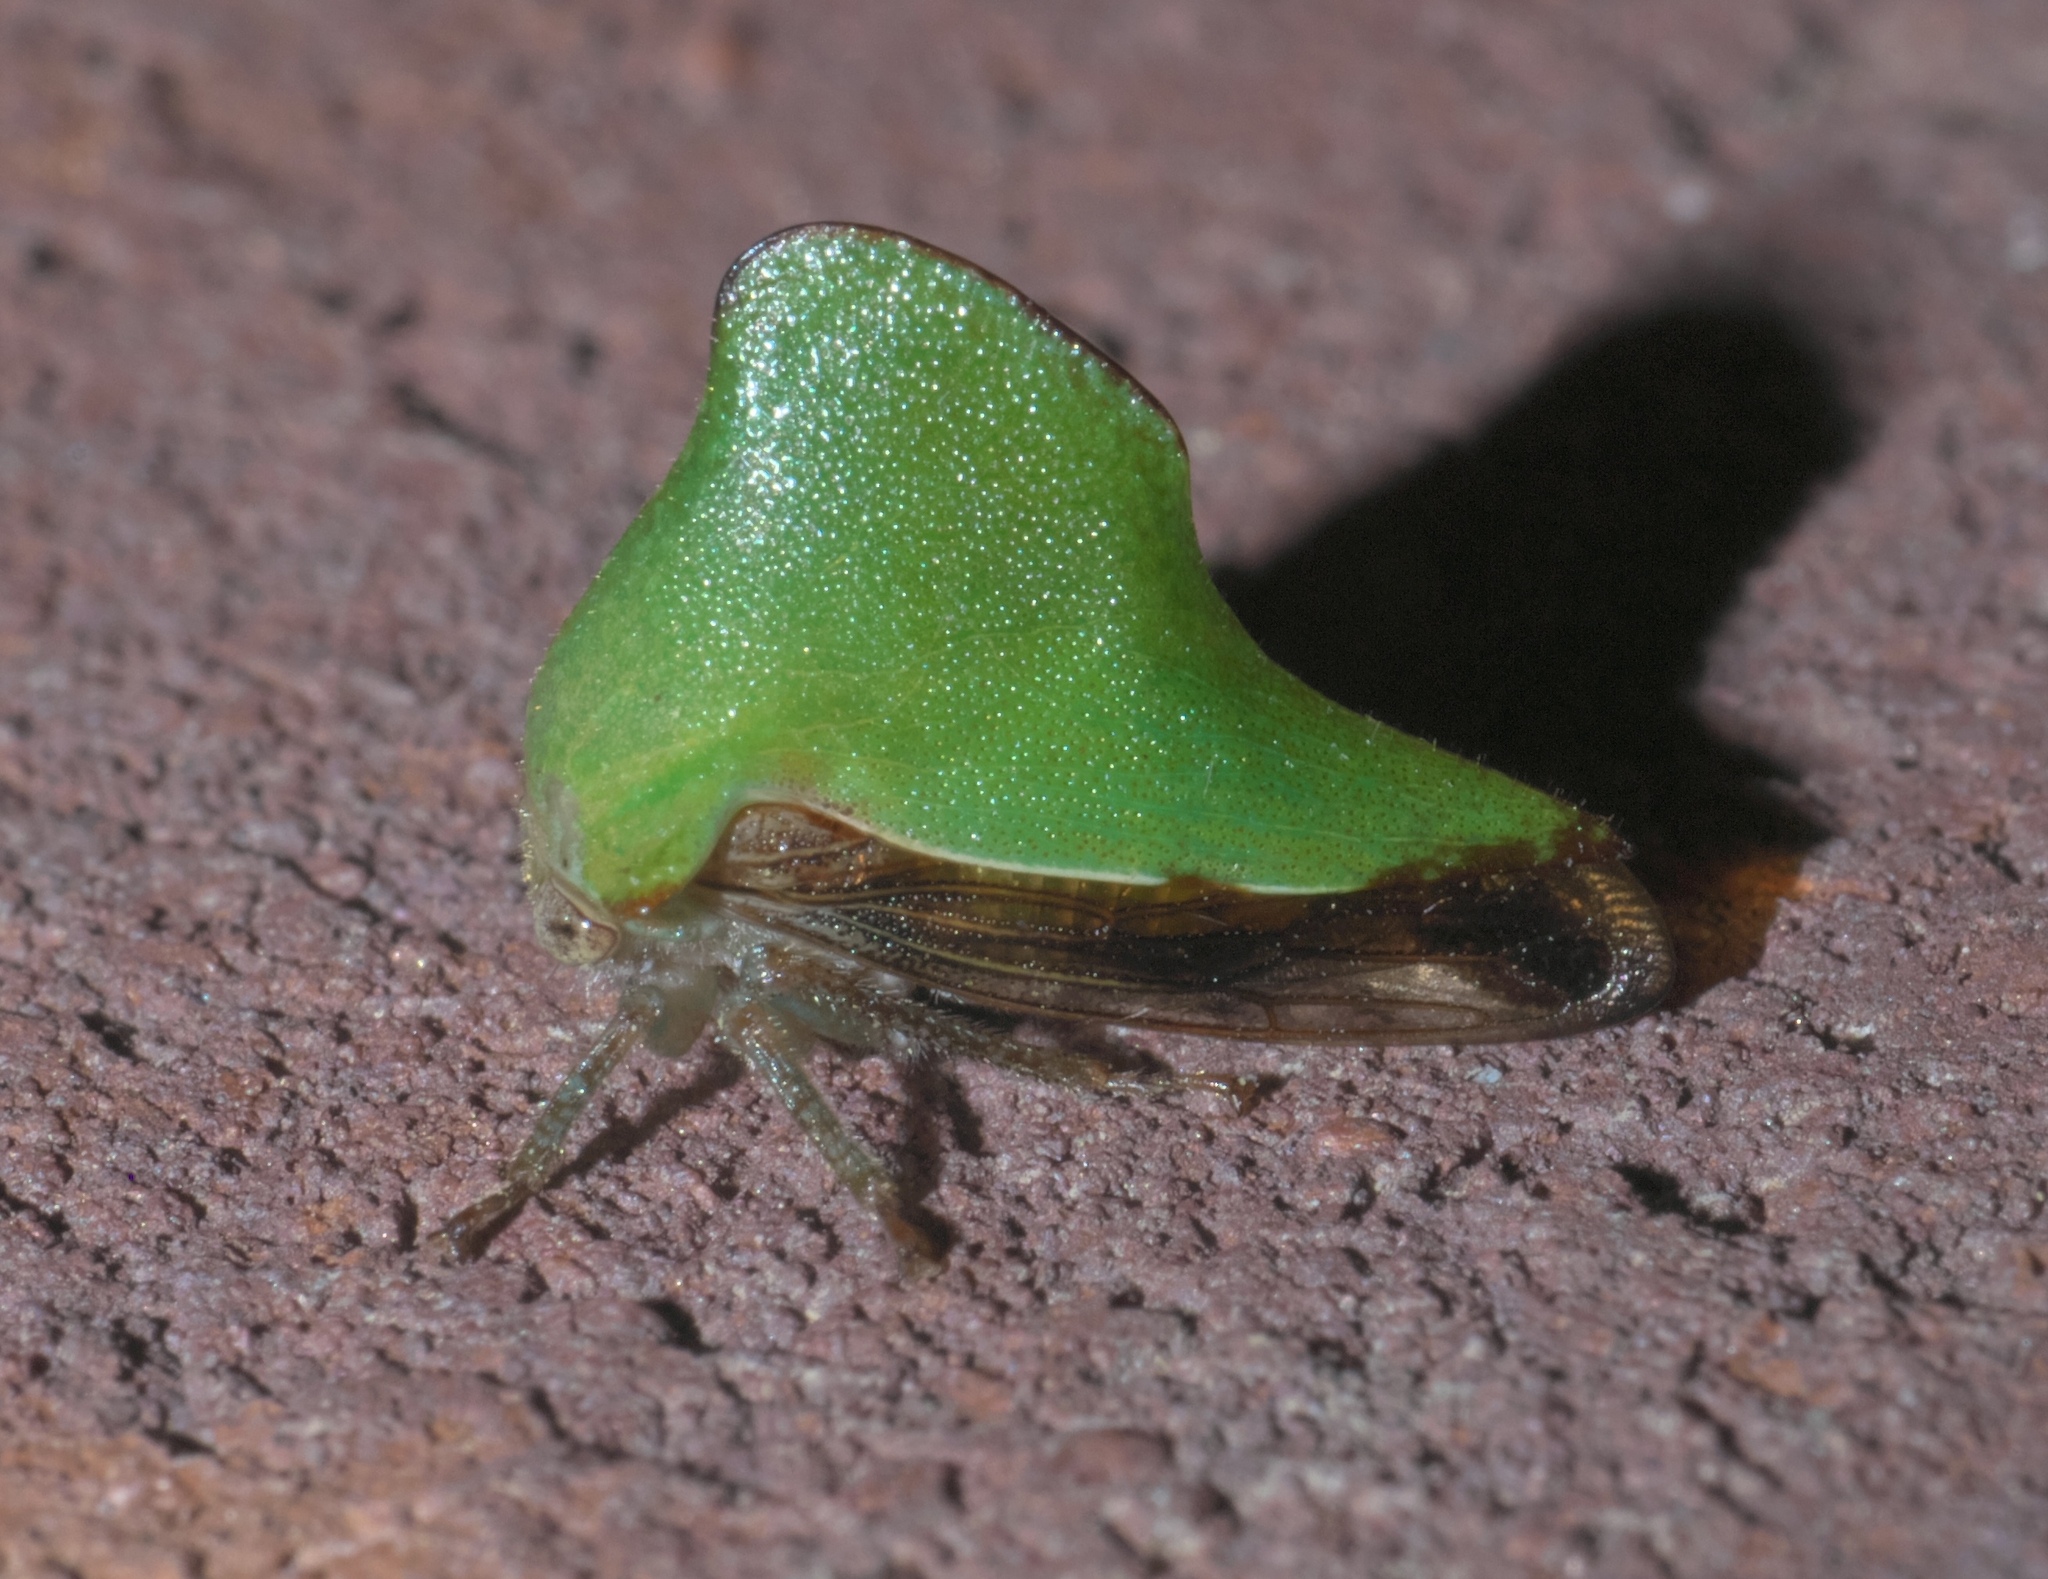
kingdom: Animalia
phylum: Arthropoda
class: Insecta
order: Hemiptera
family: Membracidae
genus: Helonica
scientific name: Helonica excelsa
